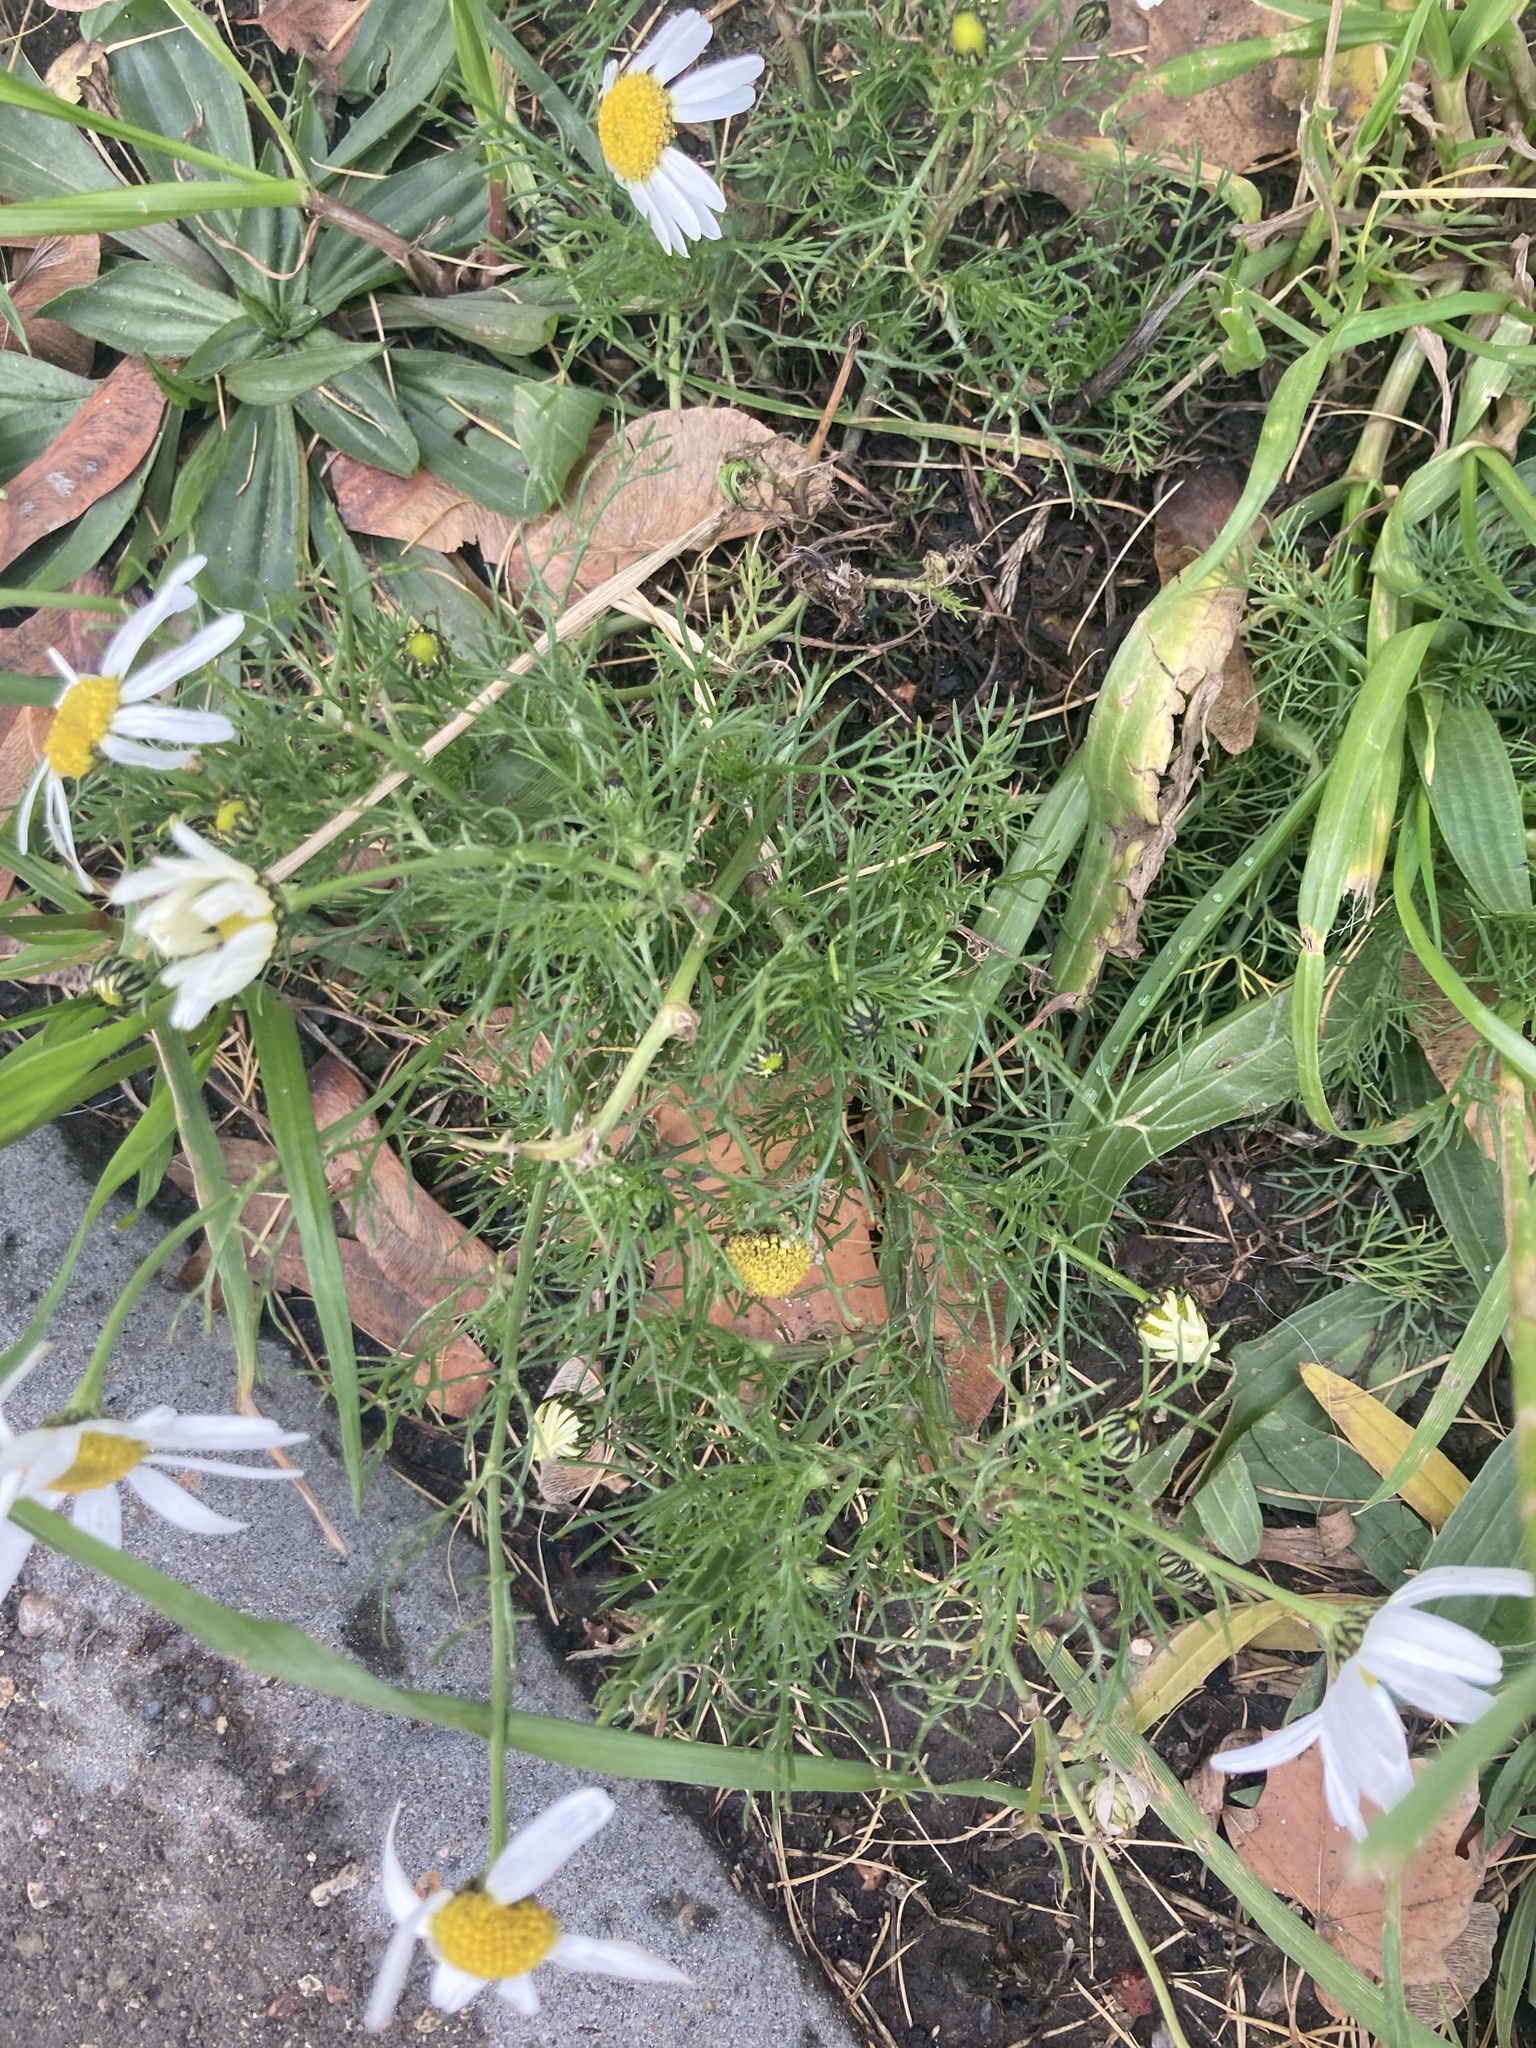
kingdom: Plantae
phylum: Tracheophyta
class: Magnoliopsida
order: Asterales
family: Asteraceae
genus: Tripleurospermum
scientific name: Tripleurospermum inodorum
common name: Scentless mayweed
